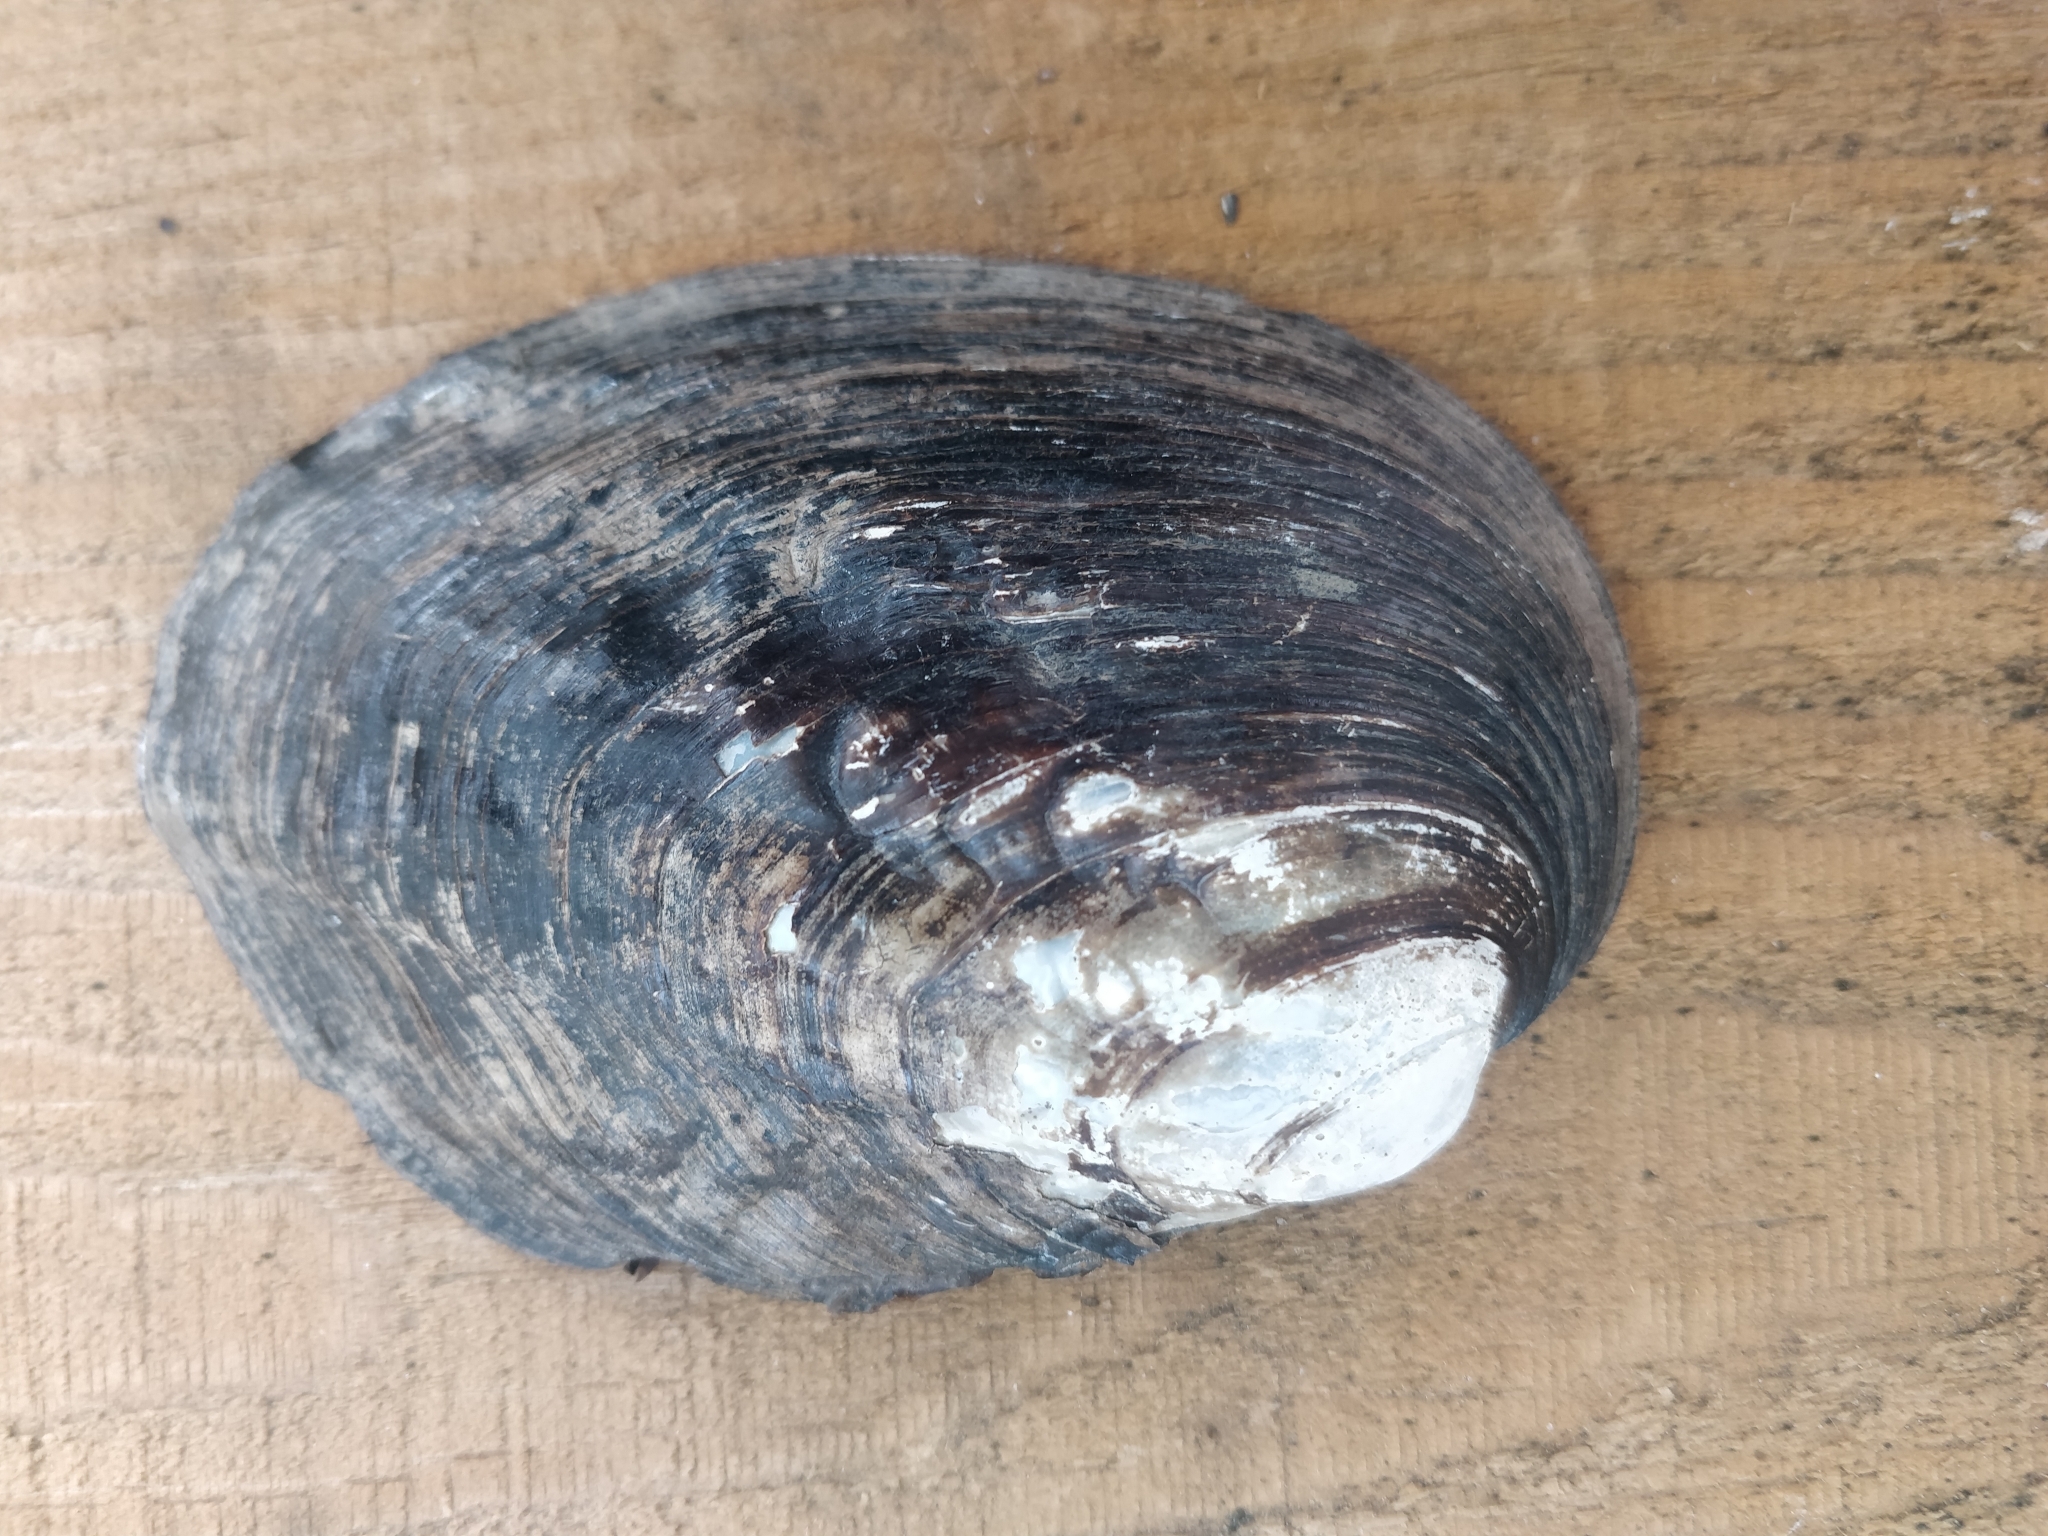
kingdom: Animalia
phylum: Mollusca
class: Bivalvia
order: Unionida
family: Unionidae
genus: Amblema
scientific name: Amblema plicata
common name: Threeridge
